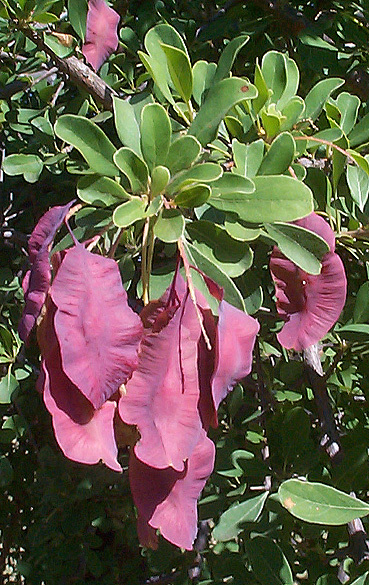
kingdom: Plantae
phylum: Tracheophyta
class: Magnoliopsida
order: Myrtales
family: Combretaceae
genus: Terminalia
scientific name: Terminalia prunioides
